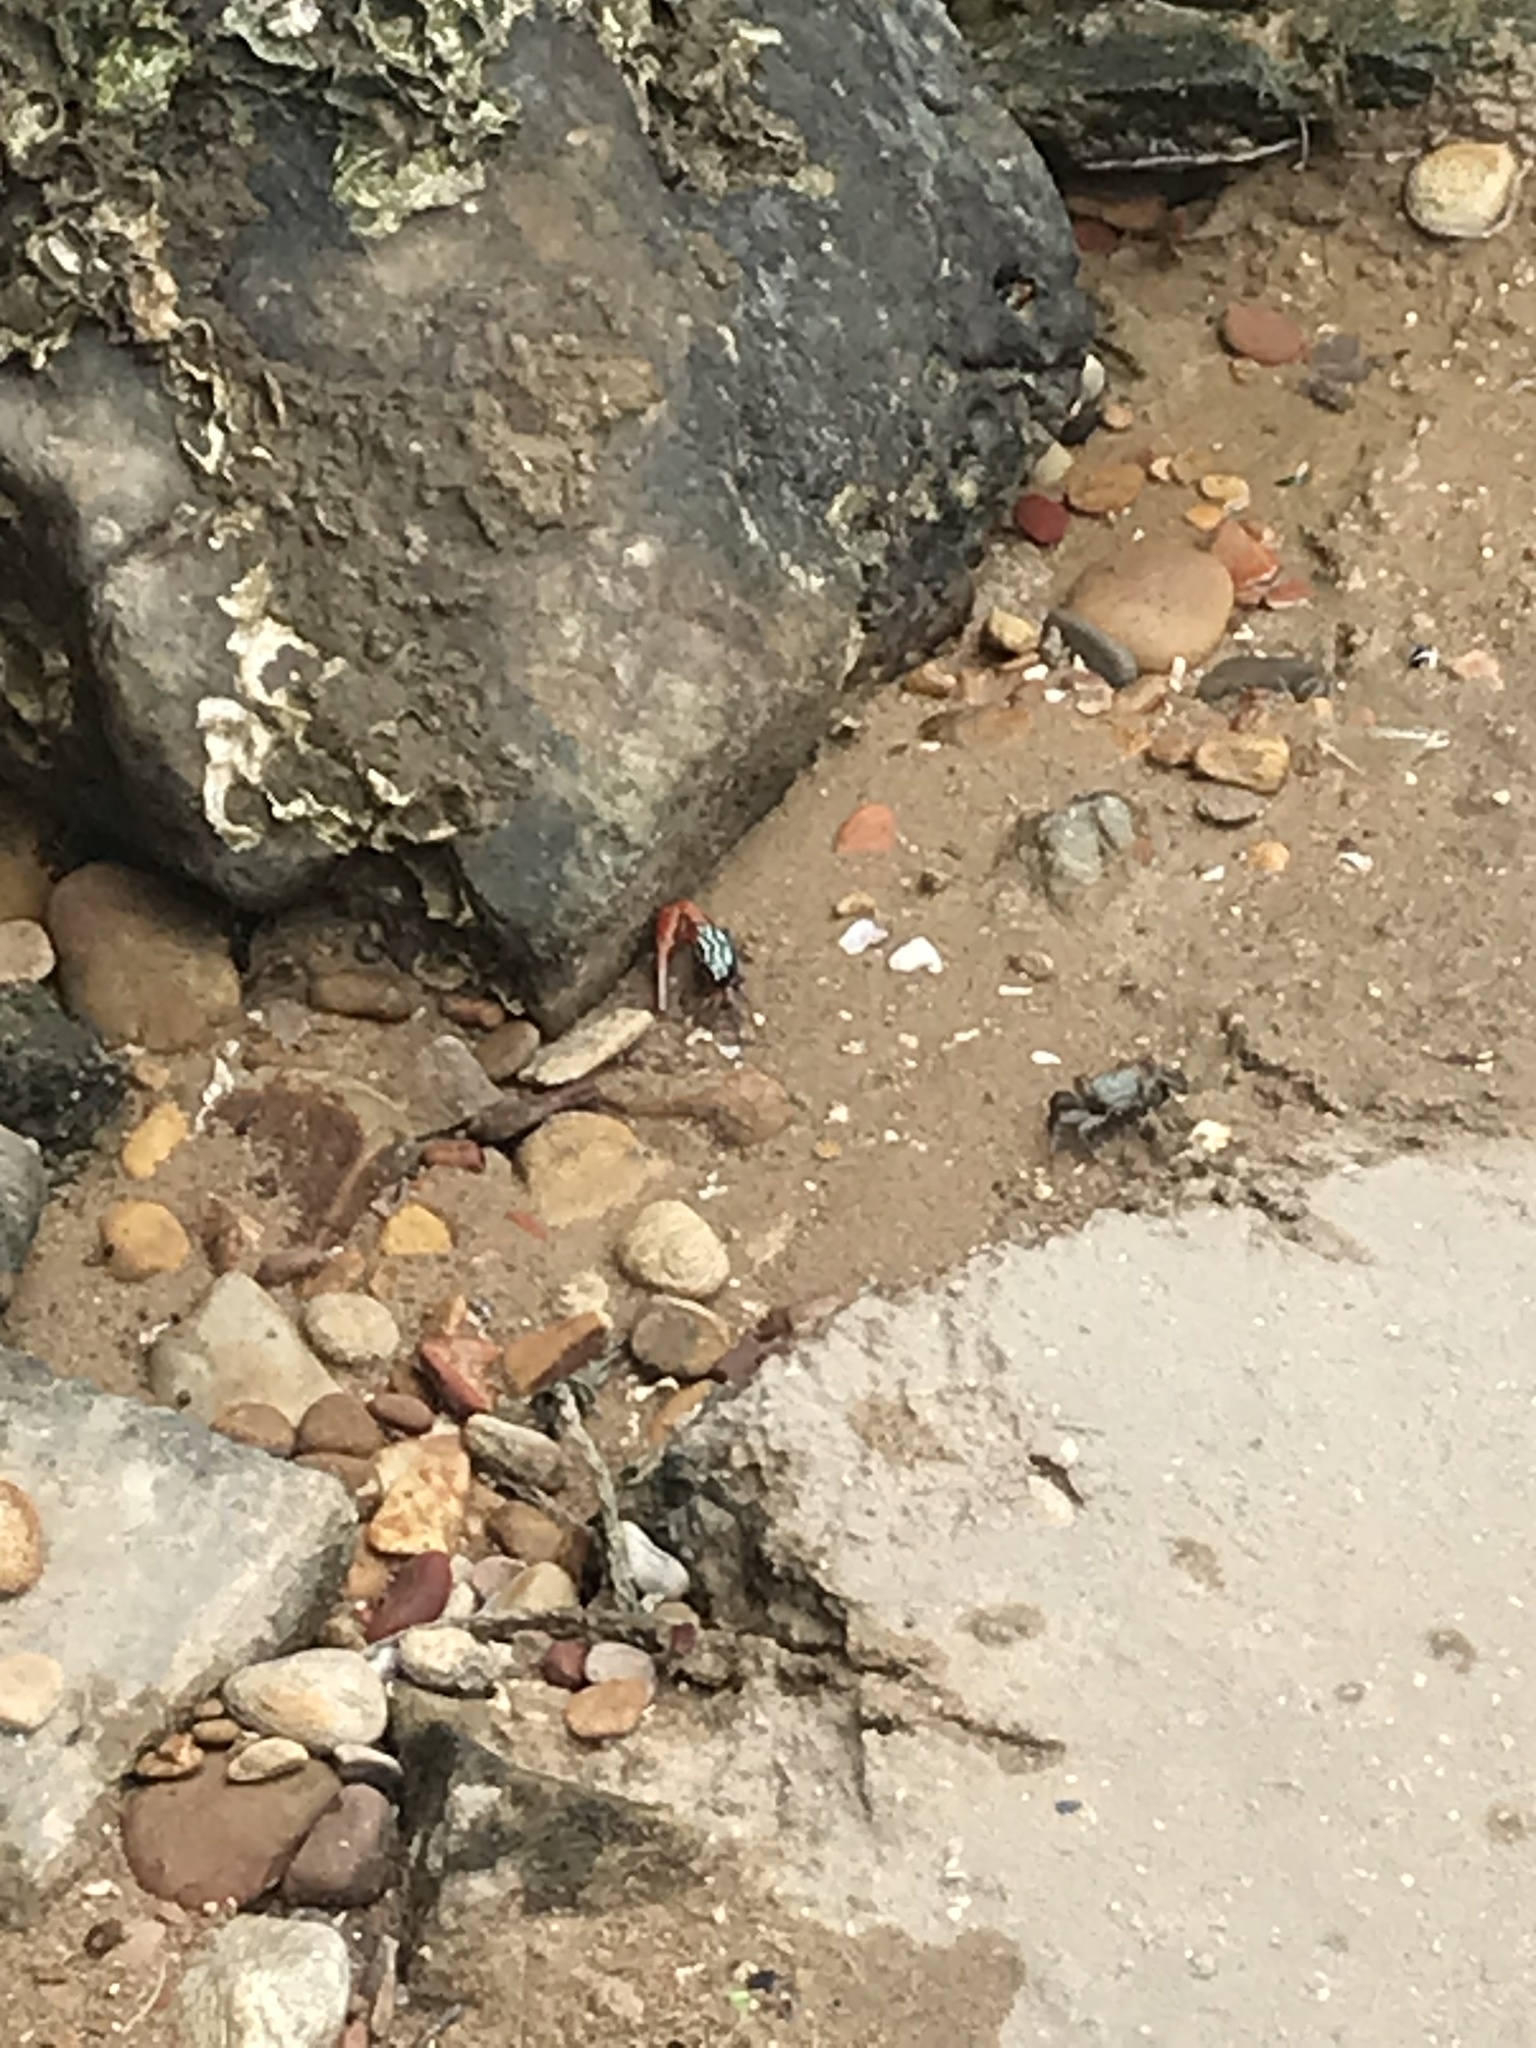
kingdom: Animalia
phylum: Arthropoda
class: Malacostraca
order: Decapoda
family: Ocypodidae
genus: Paraleptuca
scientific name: Paraleptuca splendida
